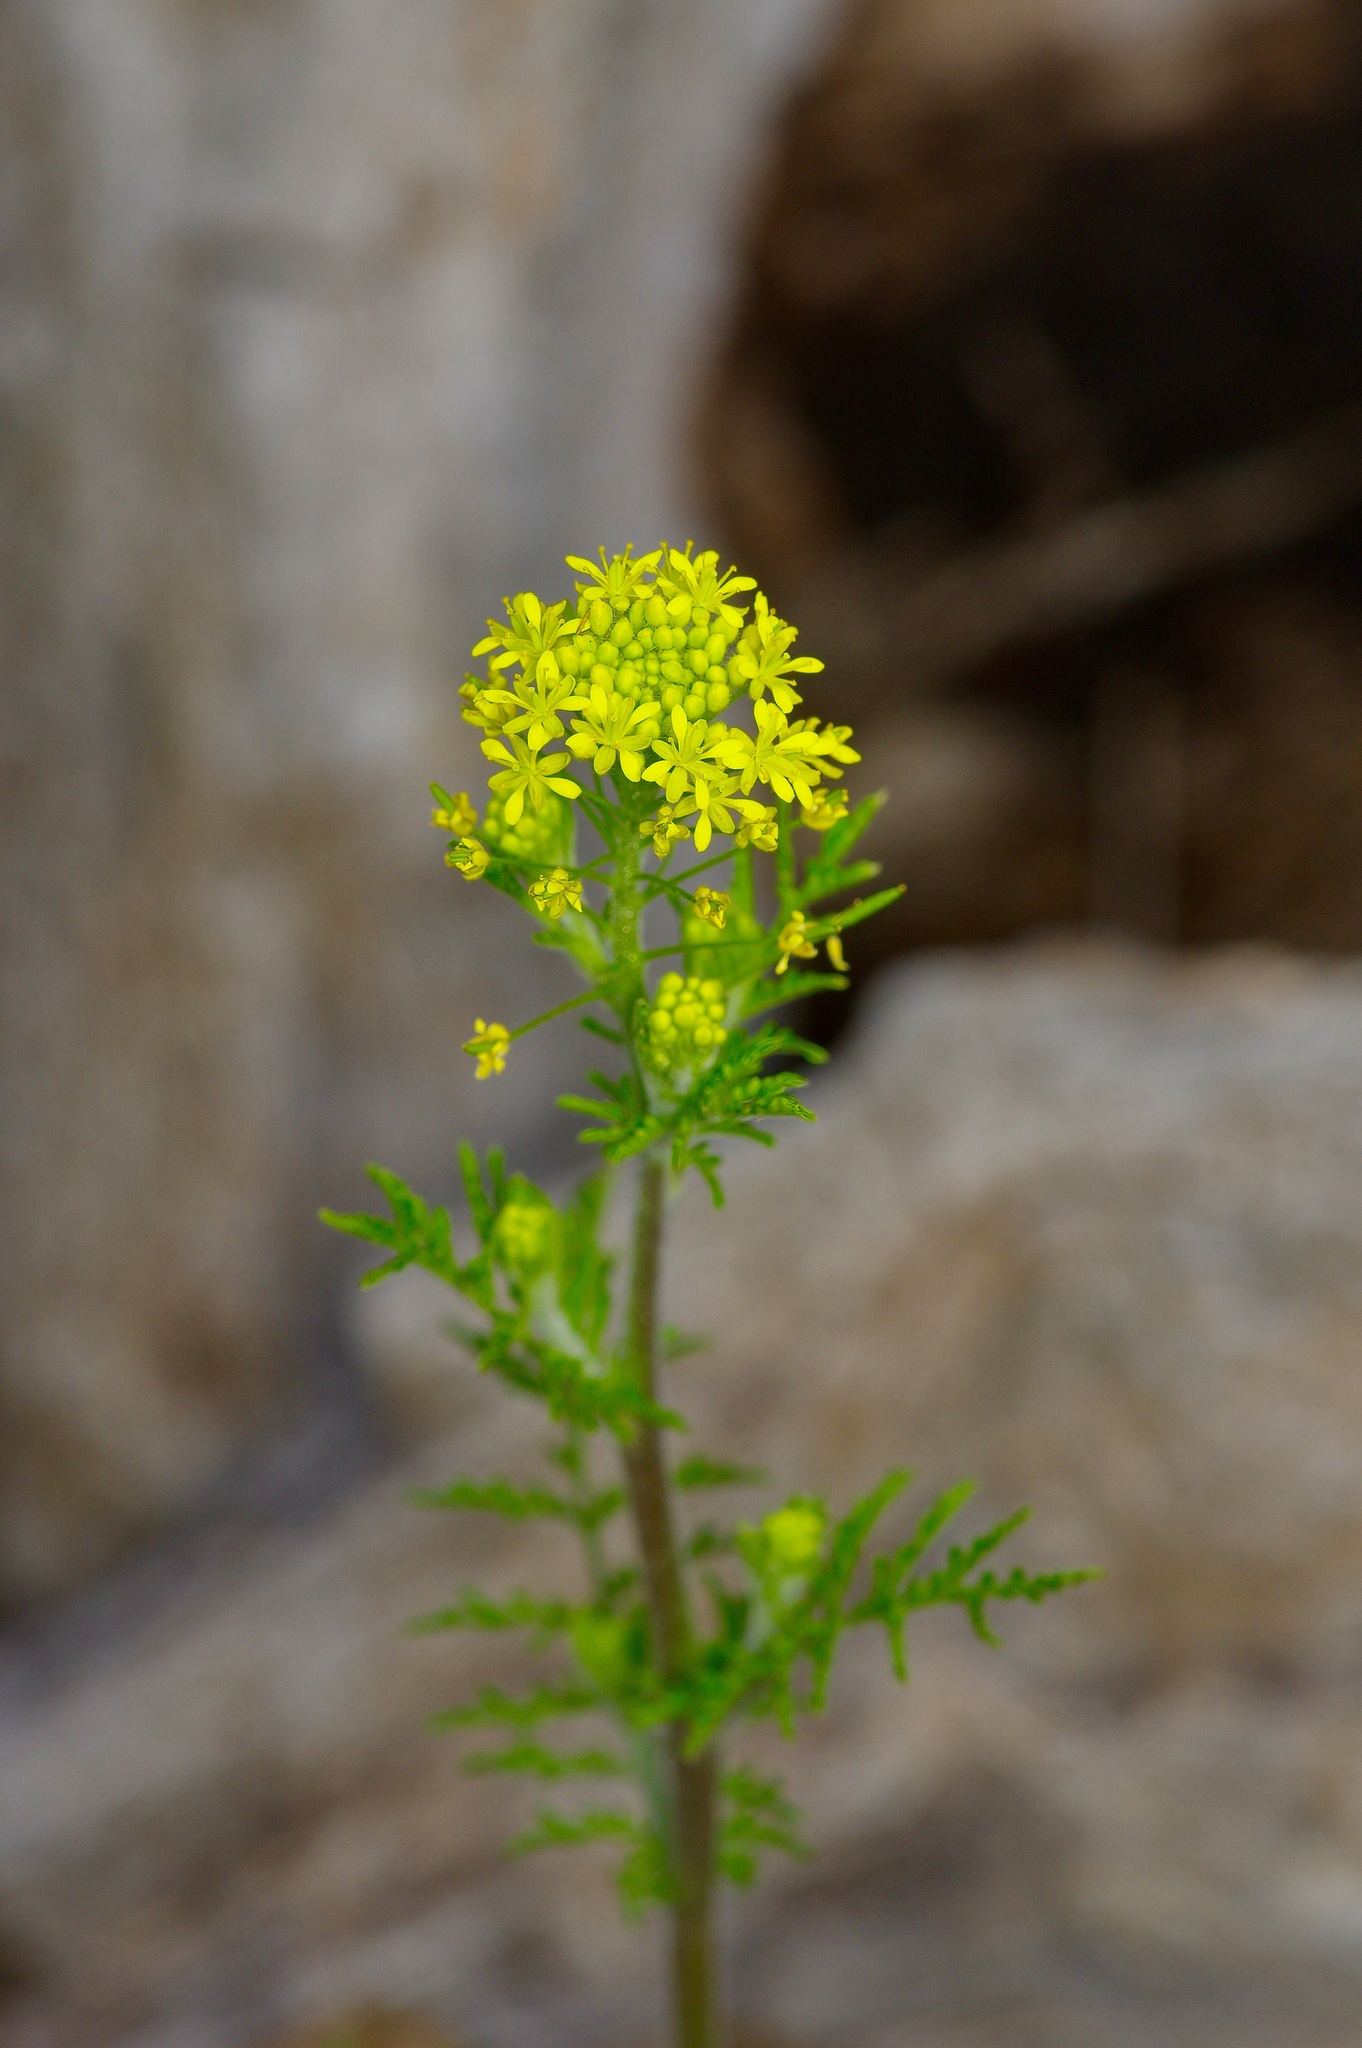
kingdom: Plantae
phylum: Tracheophyta
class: Magnoliopsida
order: Brassicales
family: Brassicaceae
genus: Descurainia
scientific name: Descurainia pinnata
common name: Western tansy mustard
